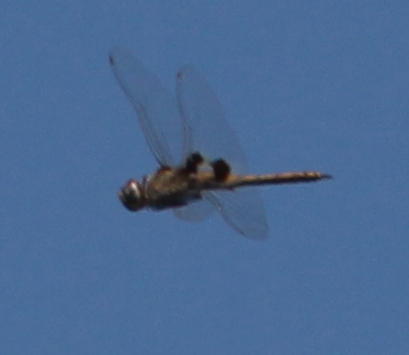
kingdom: Animalia
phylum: Arthropoda
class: Insecta
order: Odonata
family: Libellulidae
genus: Tramea
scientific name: Tramea basilaris
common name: Keyhole glider
